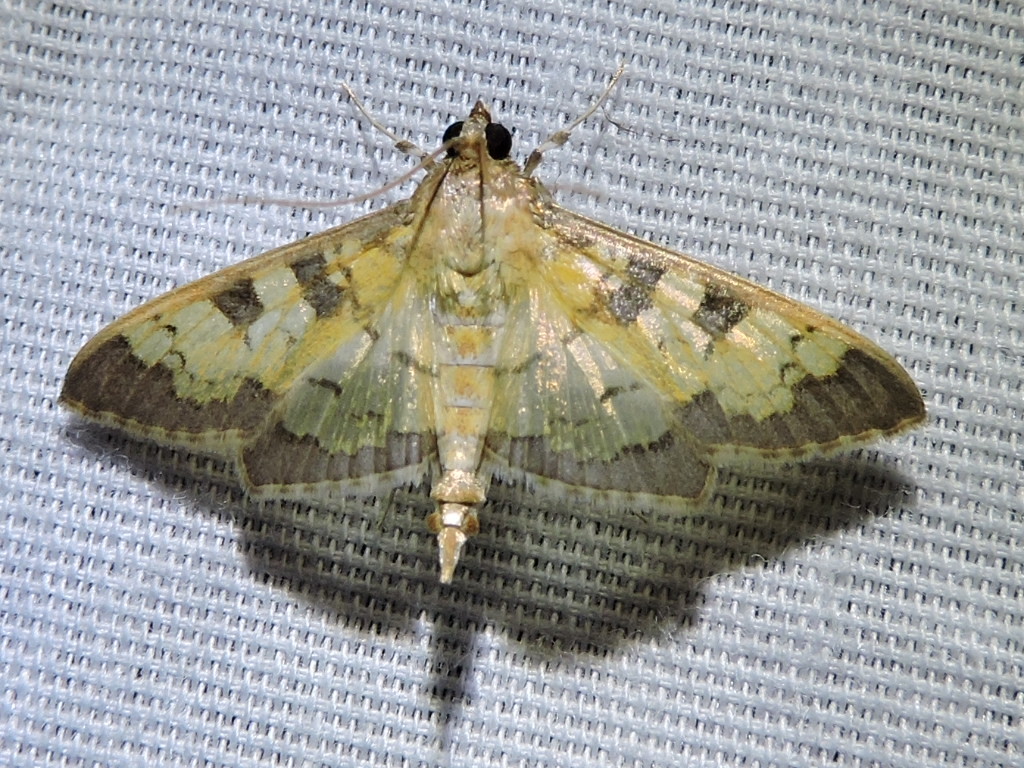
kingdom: Animalia
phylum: Arthropoda
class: Insecta
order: Lepidoptera
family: Crambidae
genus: Cryptographis
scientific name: Cryptographis elealis
